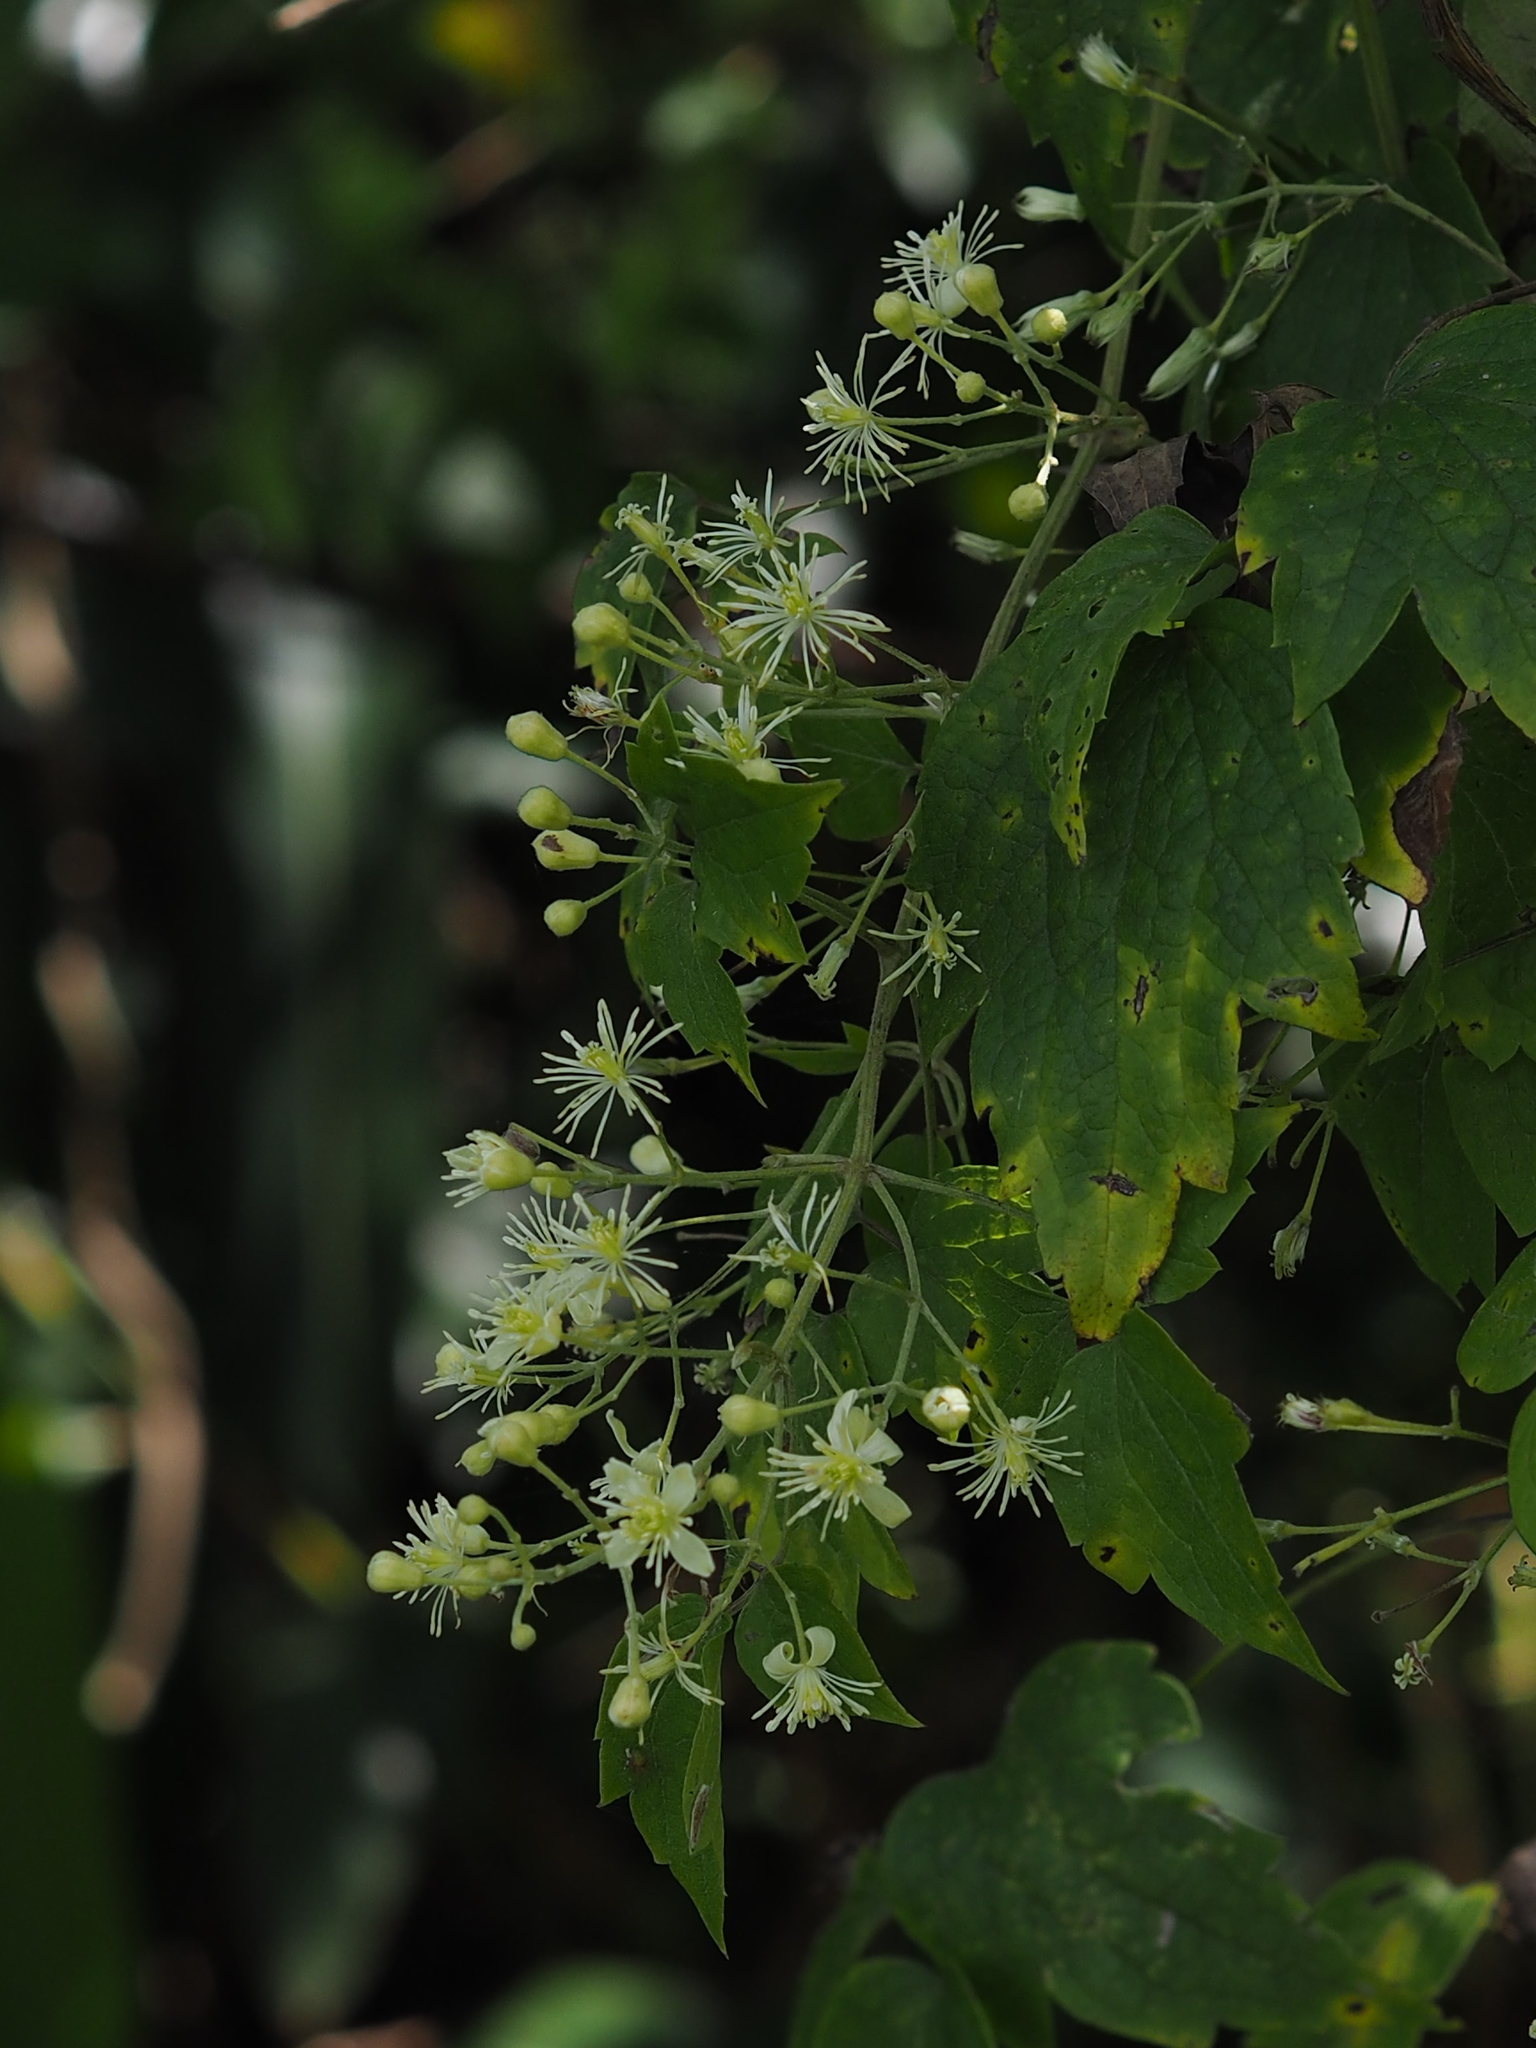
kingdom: Plantae
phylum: Tracheophyta
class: Magnoliopsida
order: Ranunculales
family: Ranunculaceae
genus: Clematis
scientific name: Clematis grata
